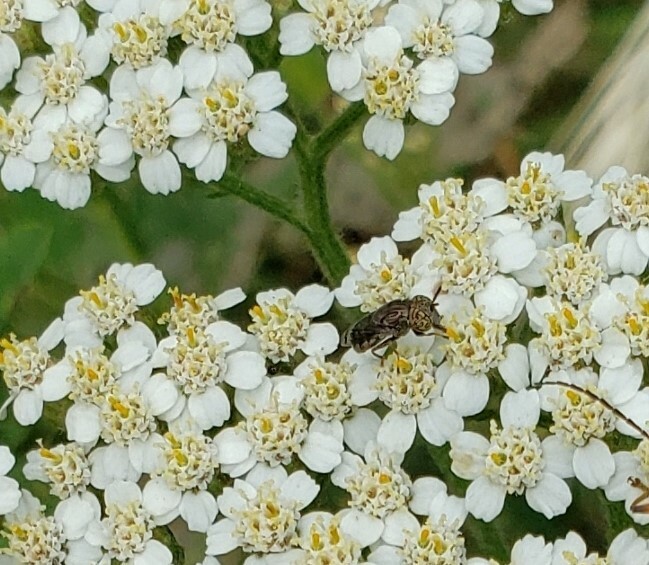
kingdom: Animalia
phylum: Arthropoda
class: Insecta
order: Diptera
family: Syrphidae
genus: Orthonevra
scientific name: Orthonevra nitida
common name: Wavy mucksucker
